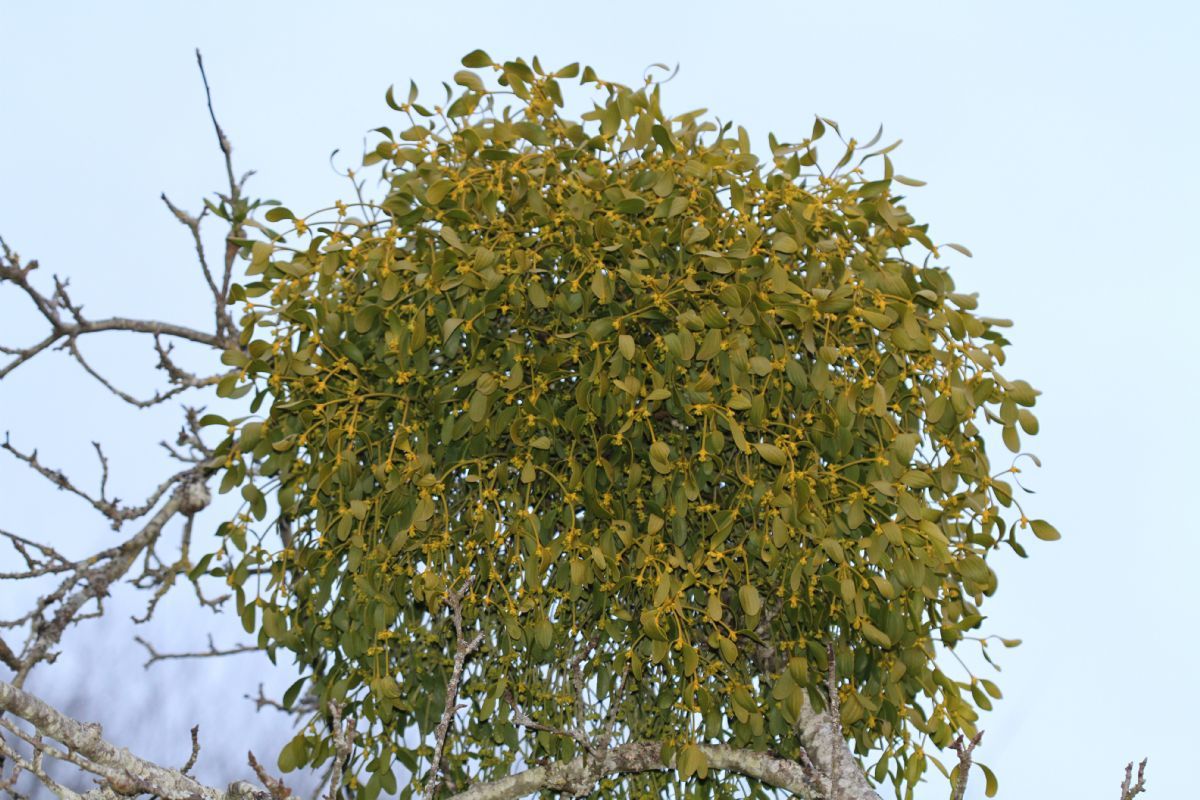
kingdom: Plantae
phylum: Tracheophyta
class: Magnoliopsida
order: Santalales
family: Viscaceae
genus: Viscum
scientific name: Viscum album
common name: Mistletoe
